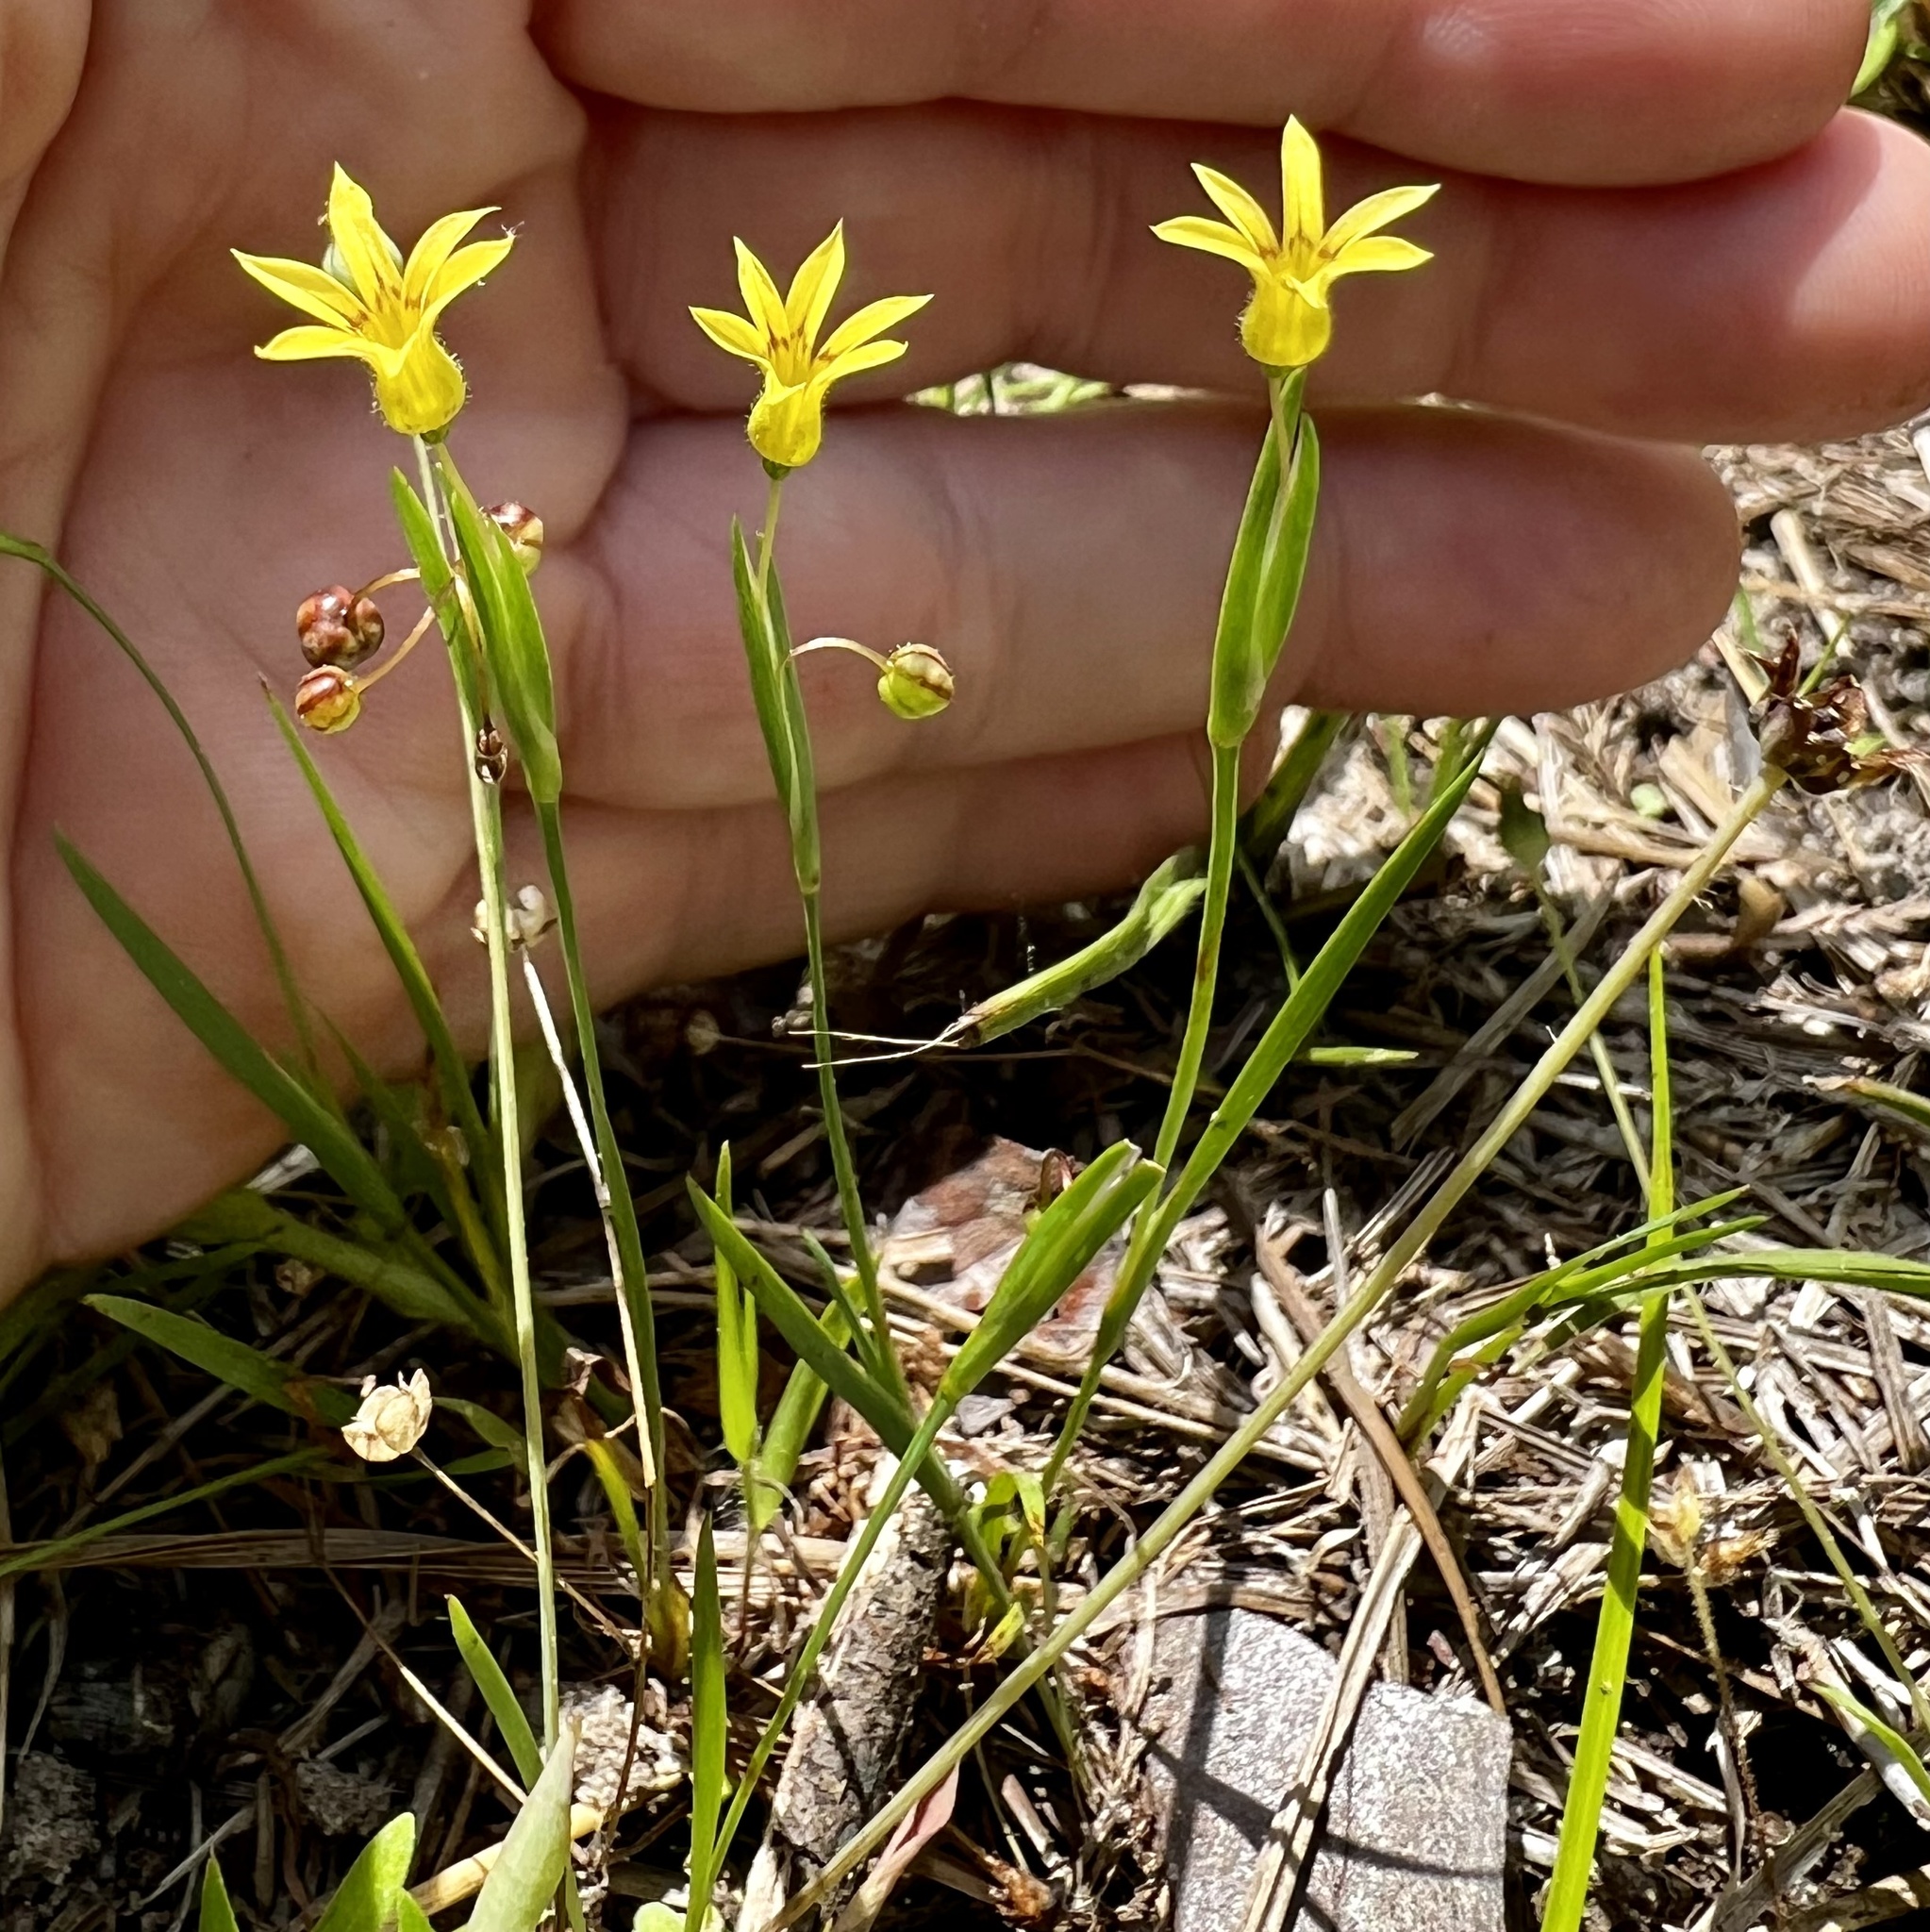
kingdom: Plantae
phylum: Tracheophyta
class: Liliopsida
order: Asparagales
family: Iridaceae
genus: Sisyrinchium
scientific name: Sisyrinchium micranthum
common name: Bermuda pigroot
